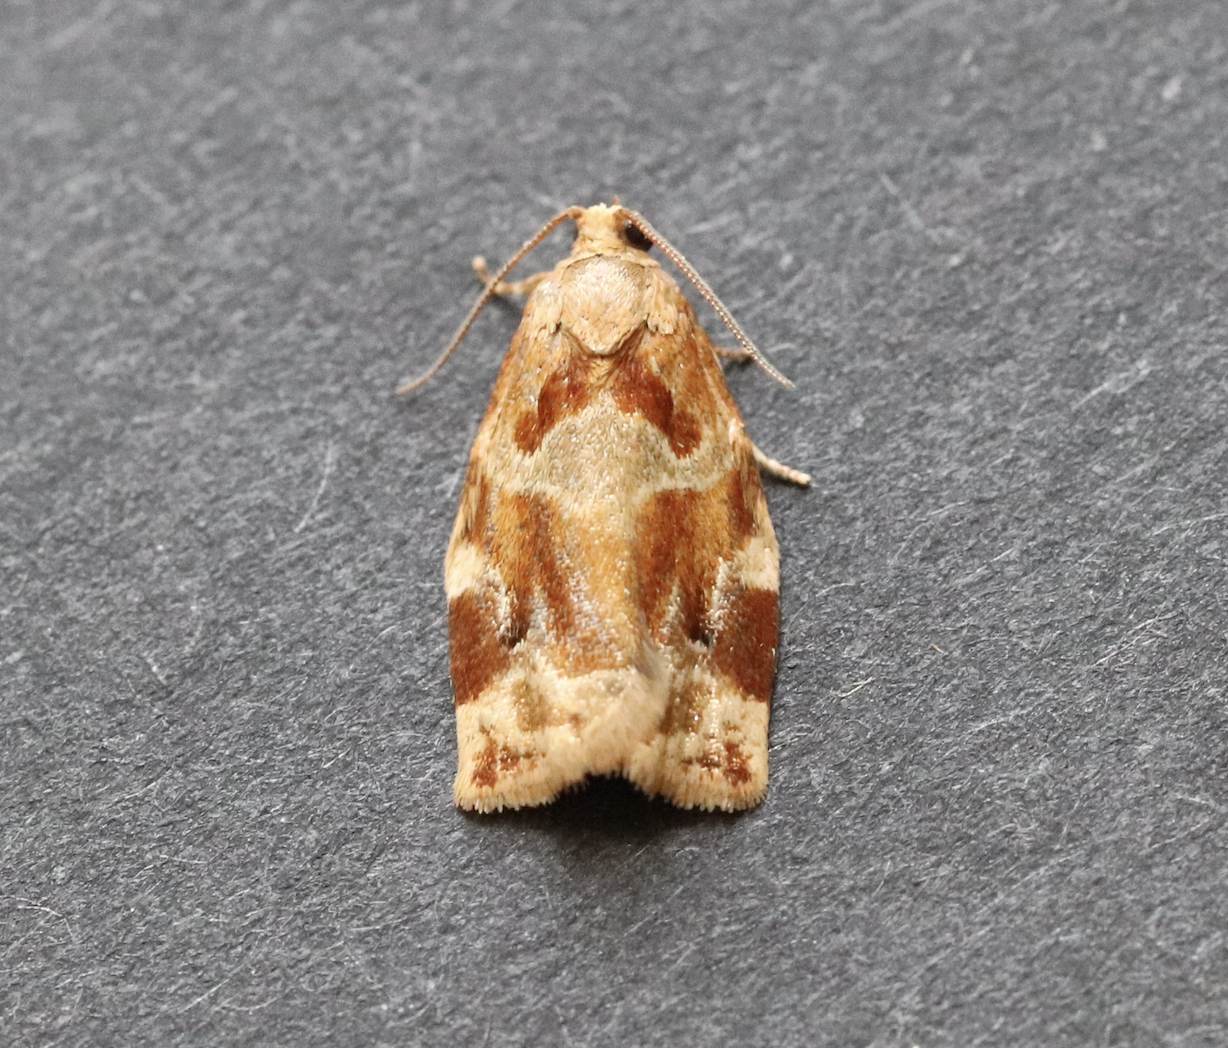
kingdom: Animalia
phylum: Arthropoda
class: Insecta
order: Lepidoptera
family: Tortricidae
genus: Archips
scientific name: Archips xylosteana
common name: Variegated golden tortrix
